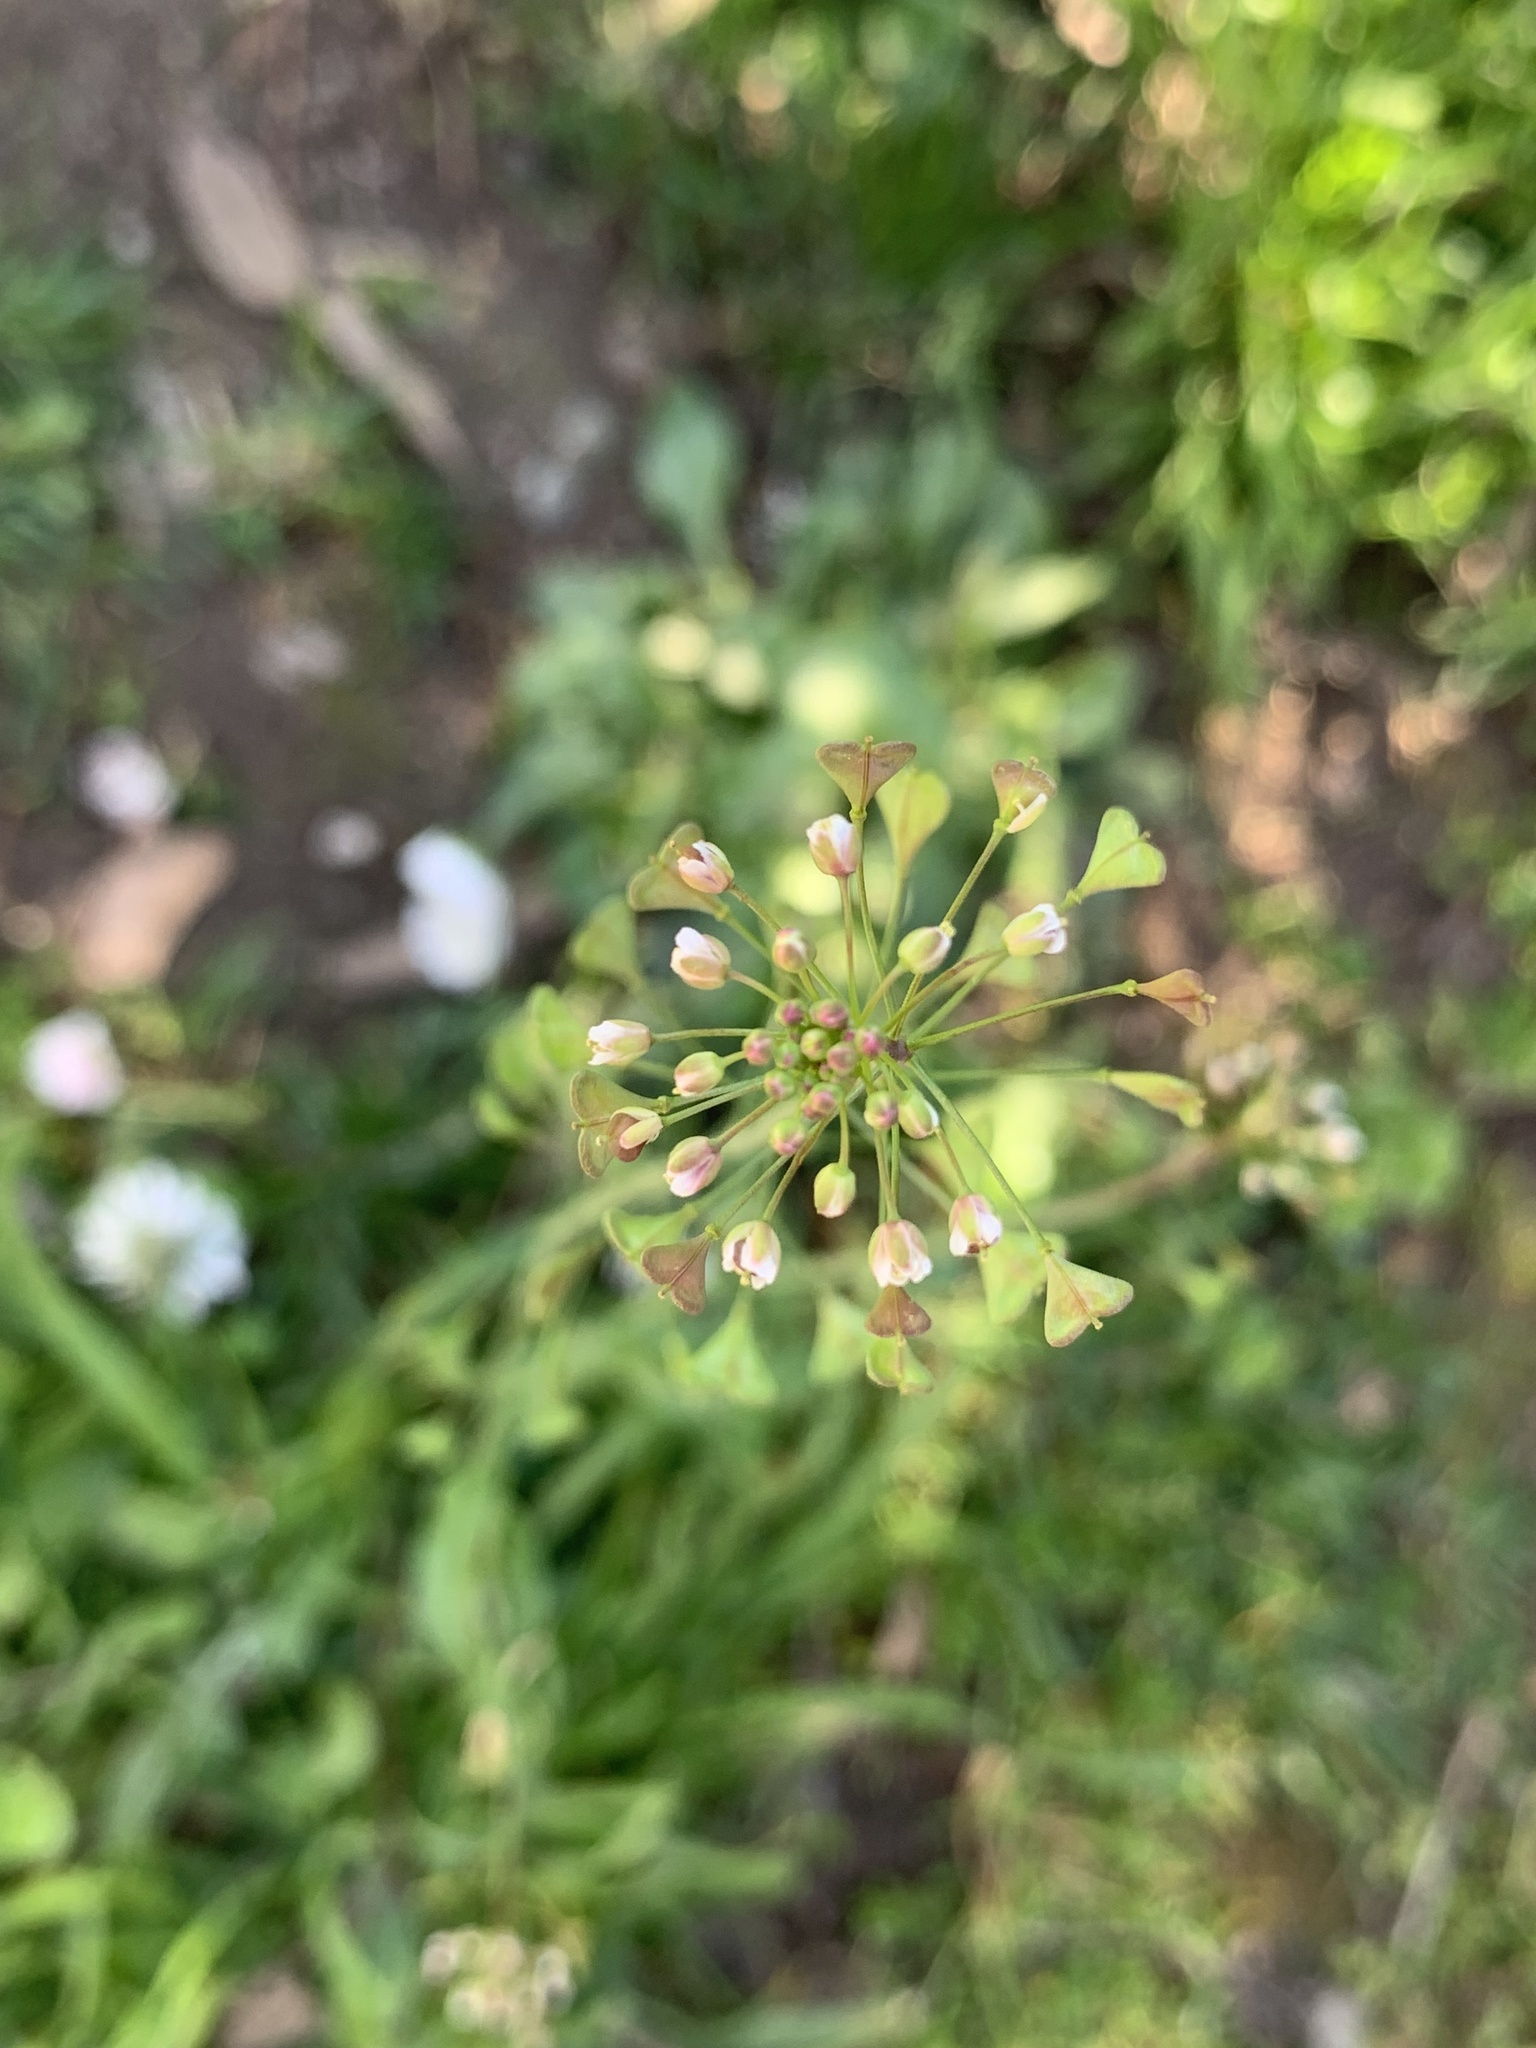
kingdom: Plantae
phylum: Tracheophyta
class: Magnoliopsida
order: Brassicales
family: Brassicaceae
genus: Capsella
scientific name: Capsella bursa-pastoris
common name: Shepherd's purse
